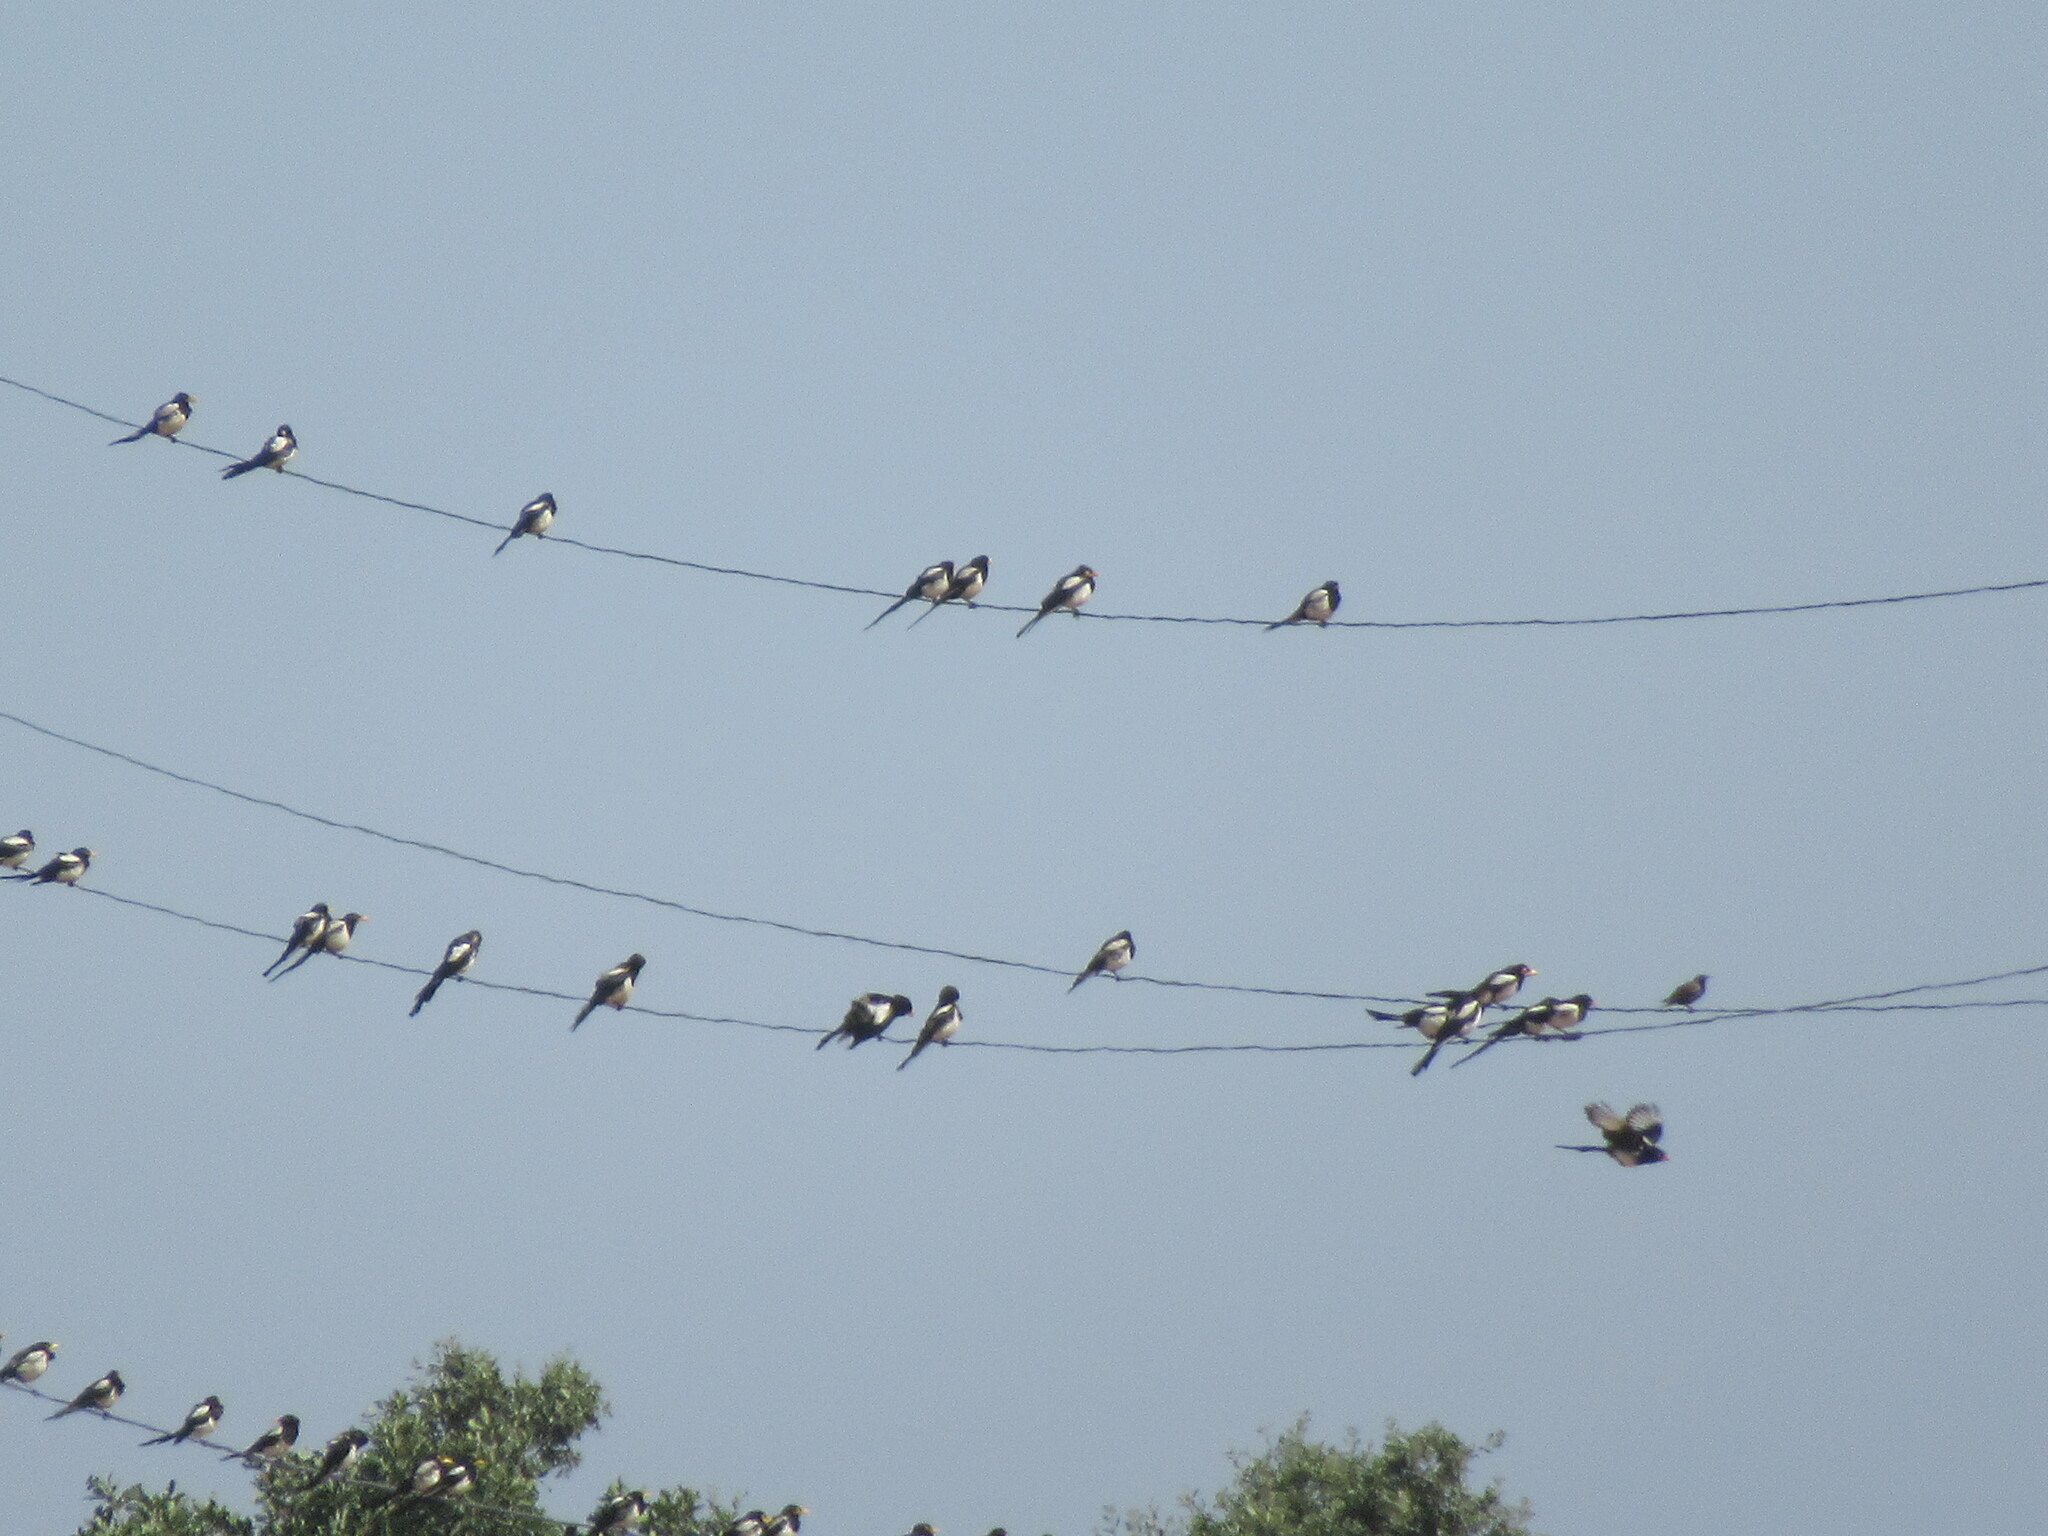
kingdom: Animalia
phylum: Chordata
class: Aves
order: Passeriformes
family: Corvidae
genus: Pica
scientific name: Pica nuttalli
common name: Yellow-billed magpie
